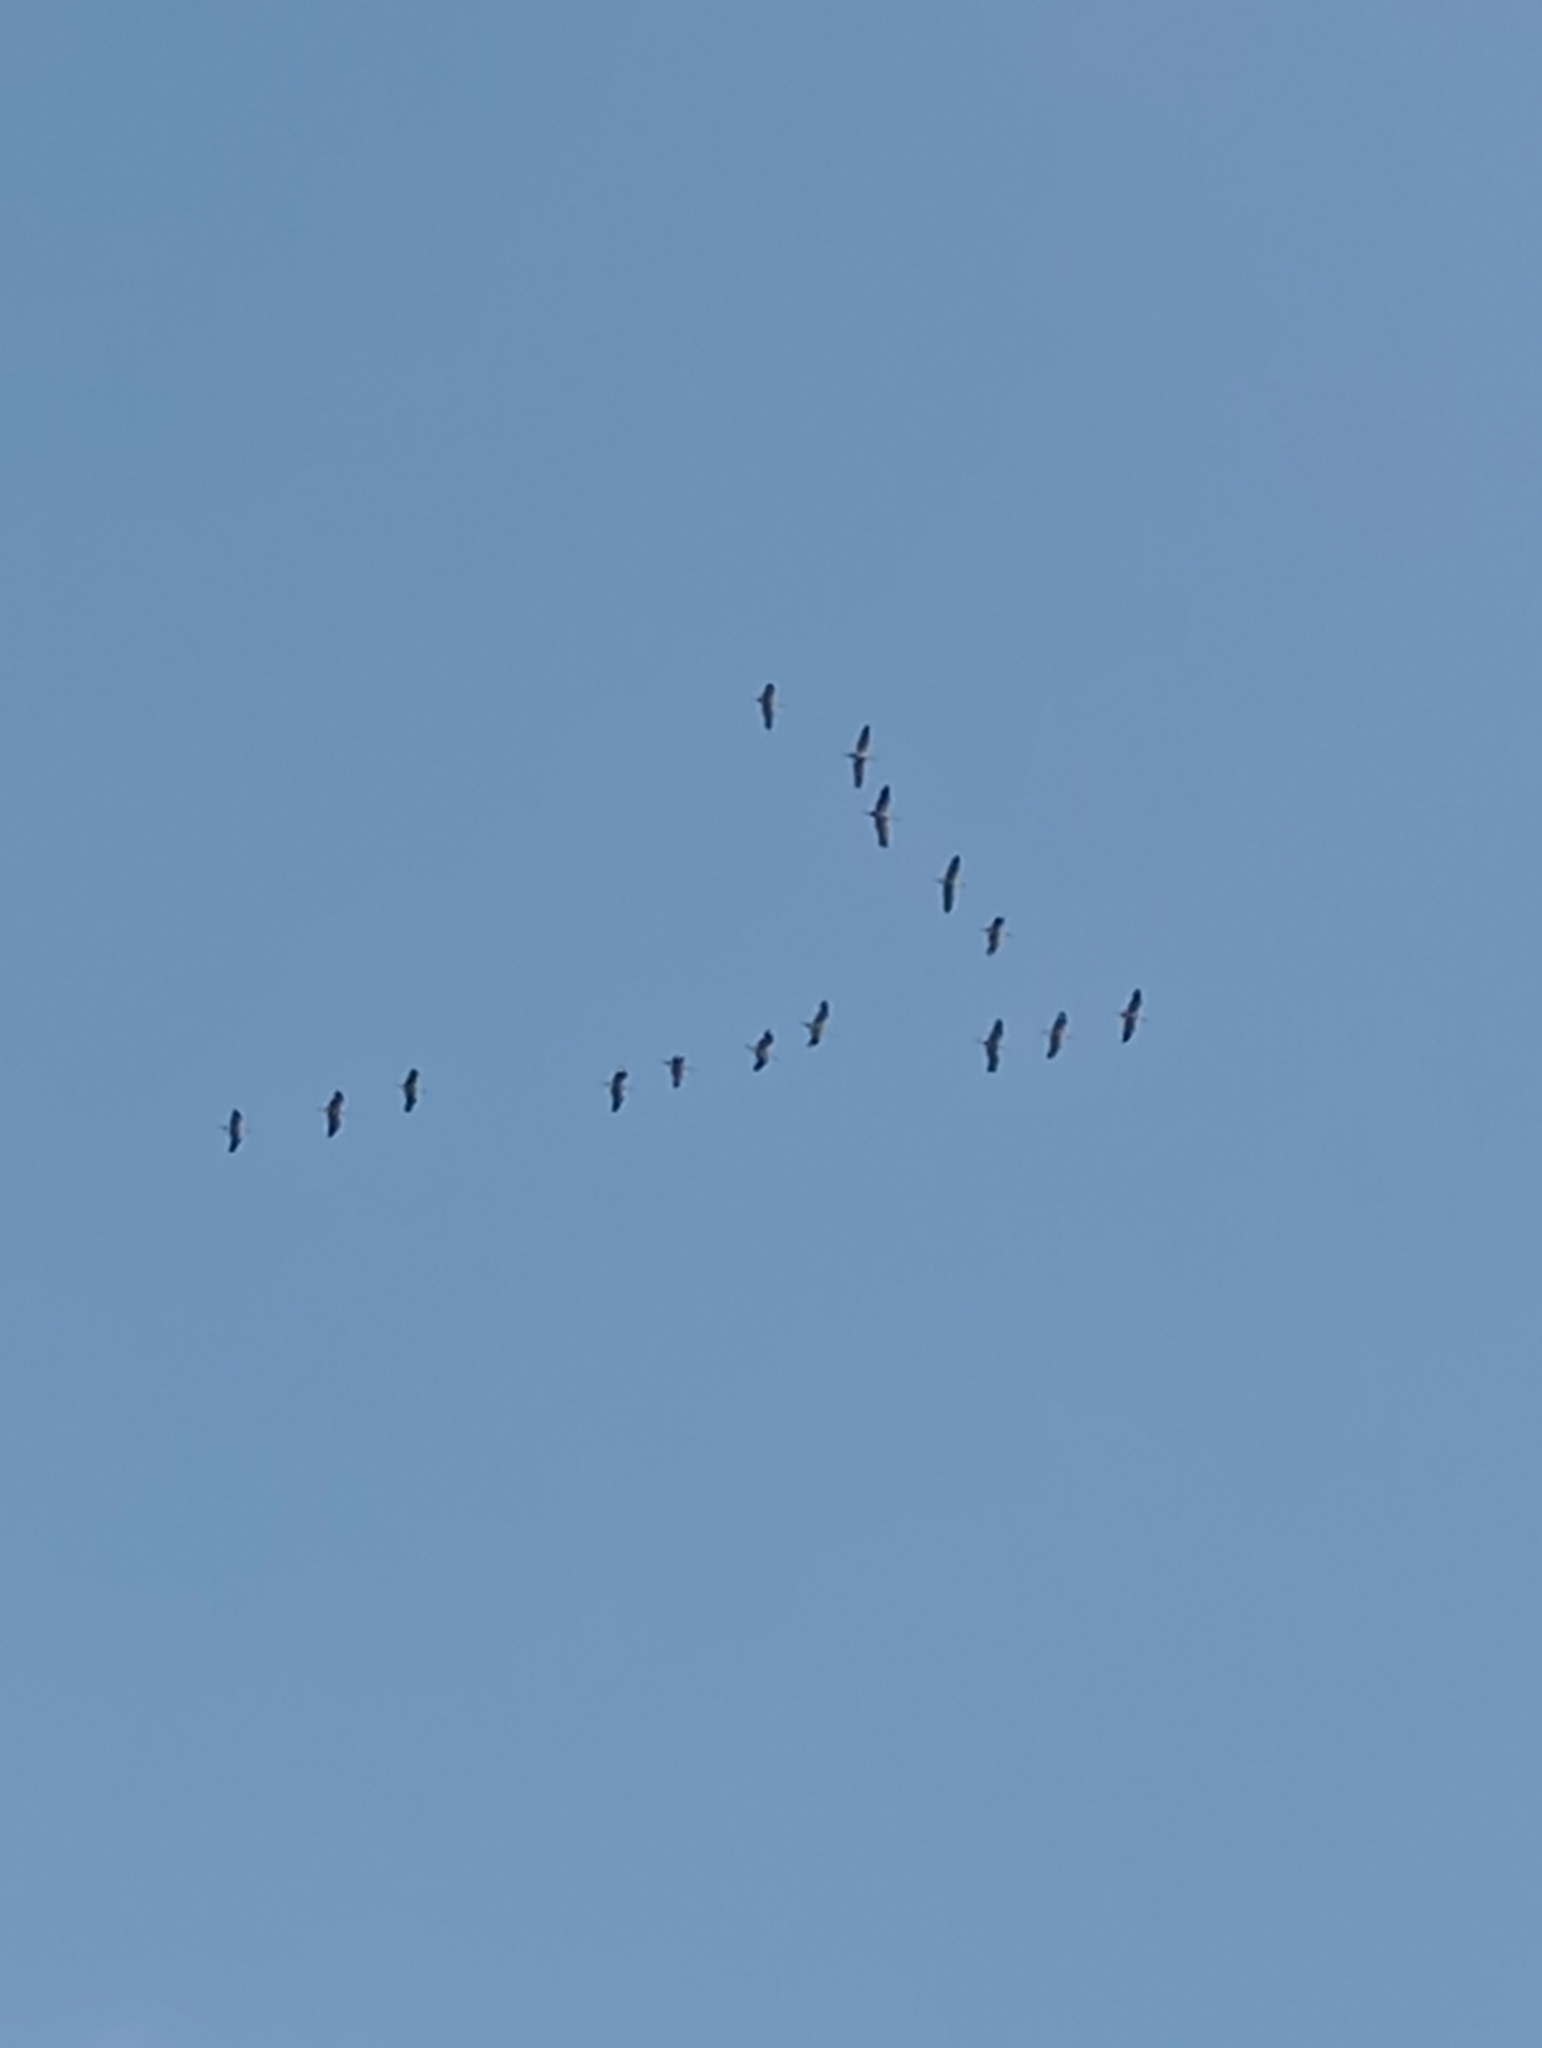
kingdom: Animalia
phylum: Chordata
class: Aves
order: Gruiformes
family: Gruidae
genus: Grus
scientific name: Grus grus
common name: Common crane
